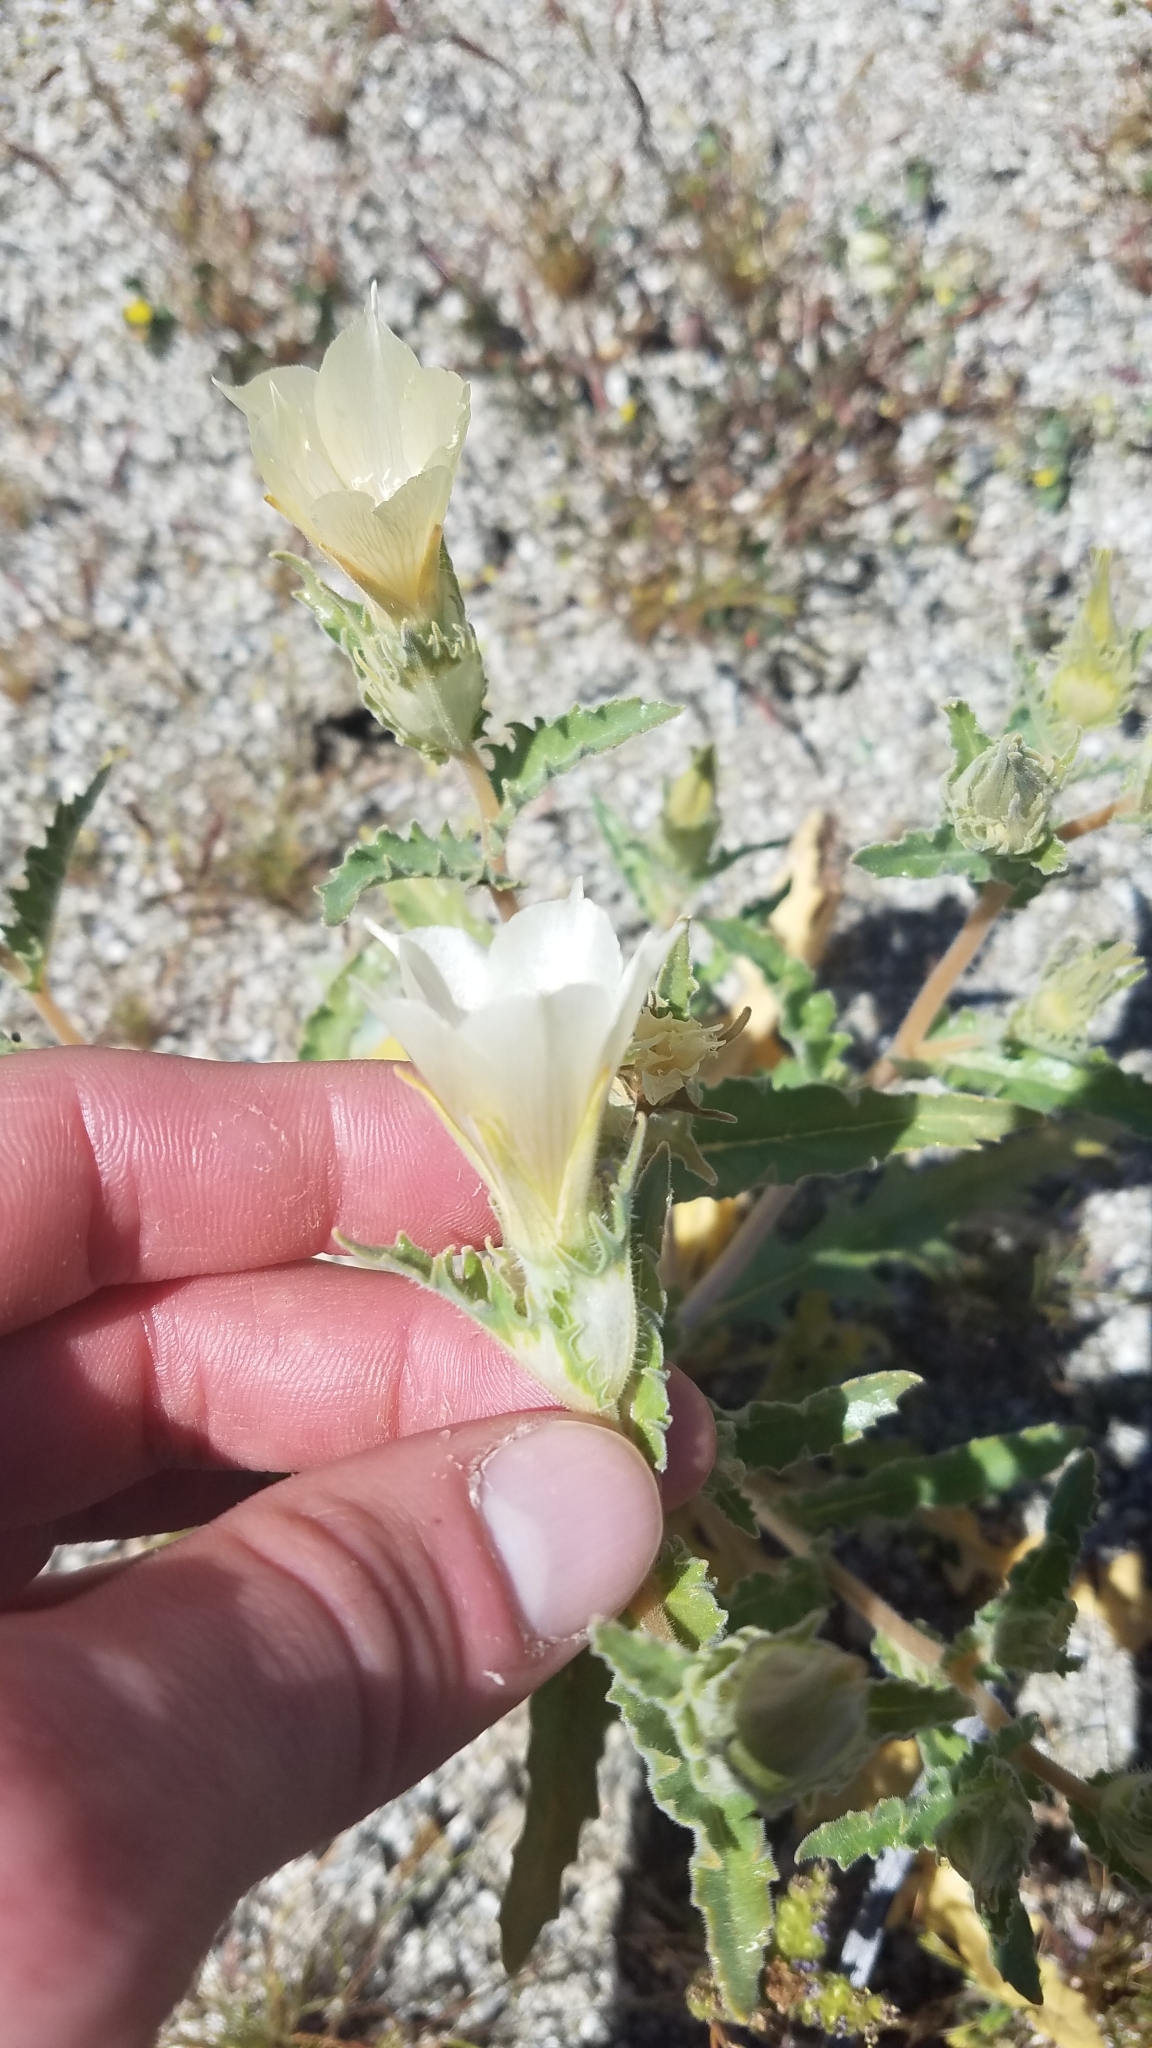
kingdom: Plantae
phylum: Tracheophyta
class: Magnoliopsida
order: Cornales
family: Loasaceae
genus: Mentzelia
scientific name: Mentzelia involucrata
